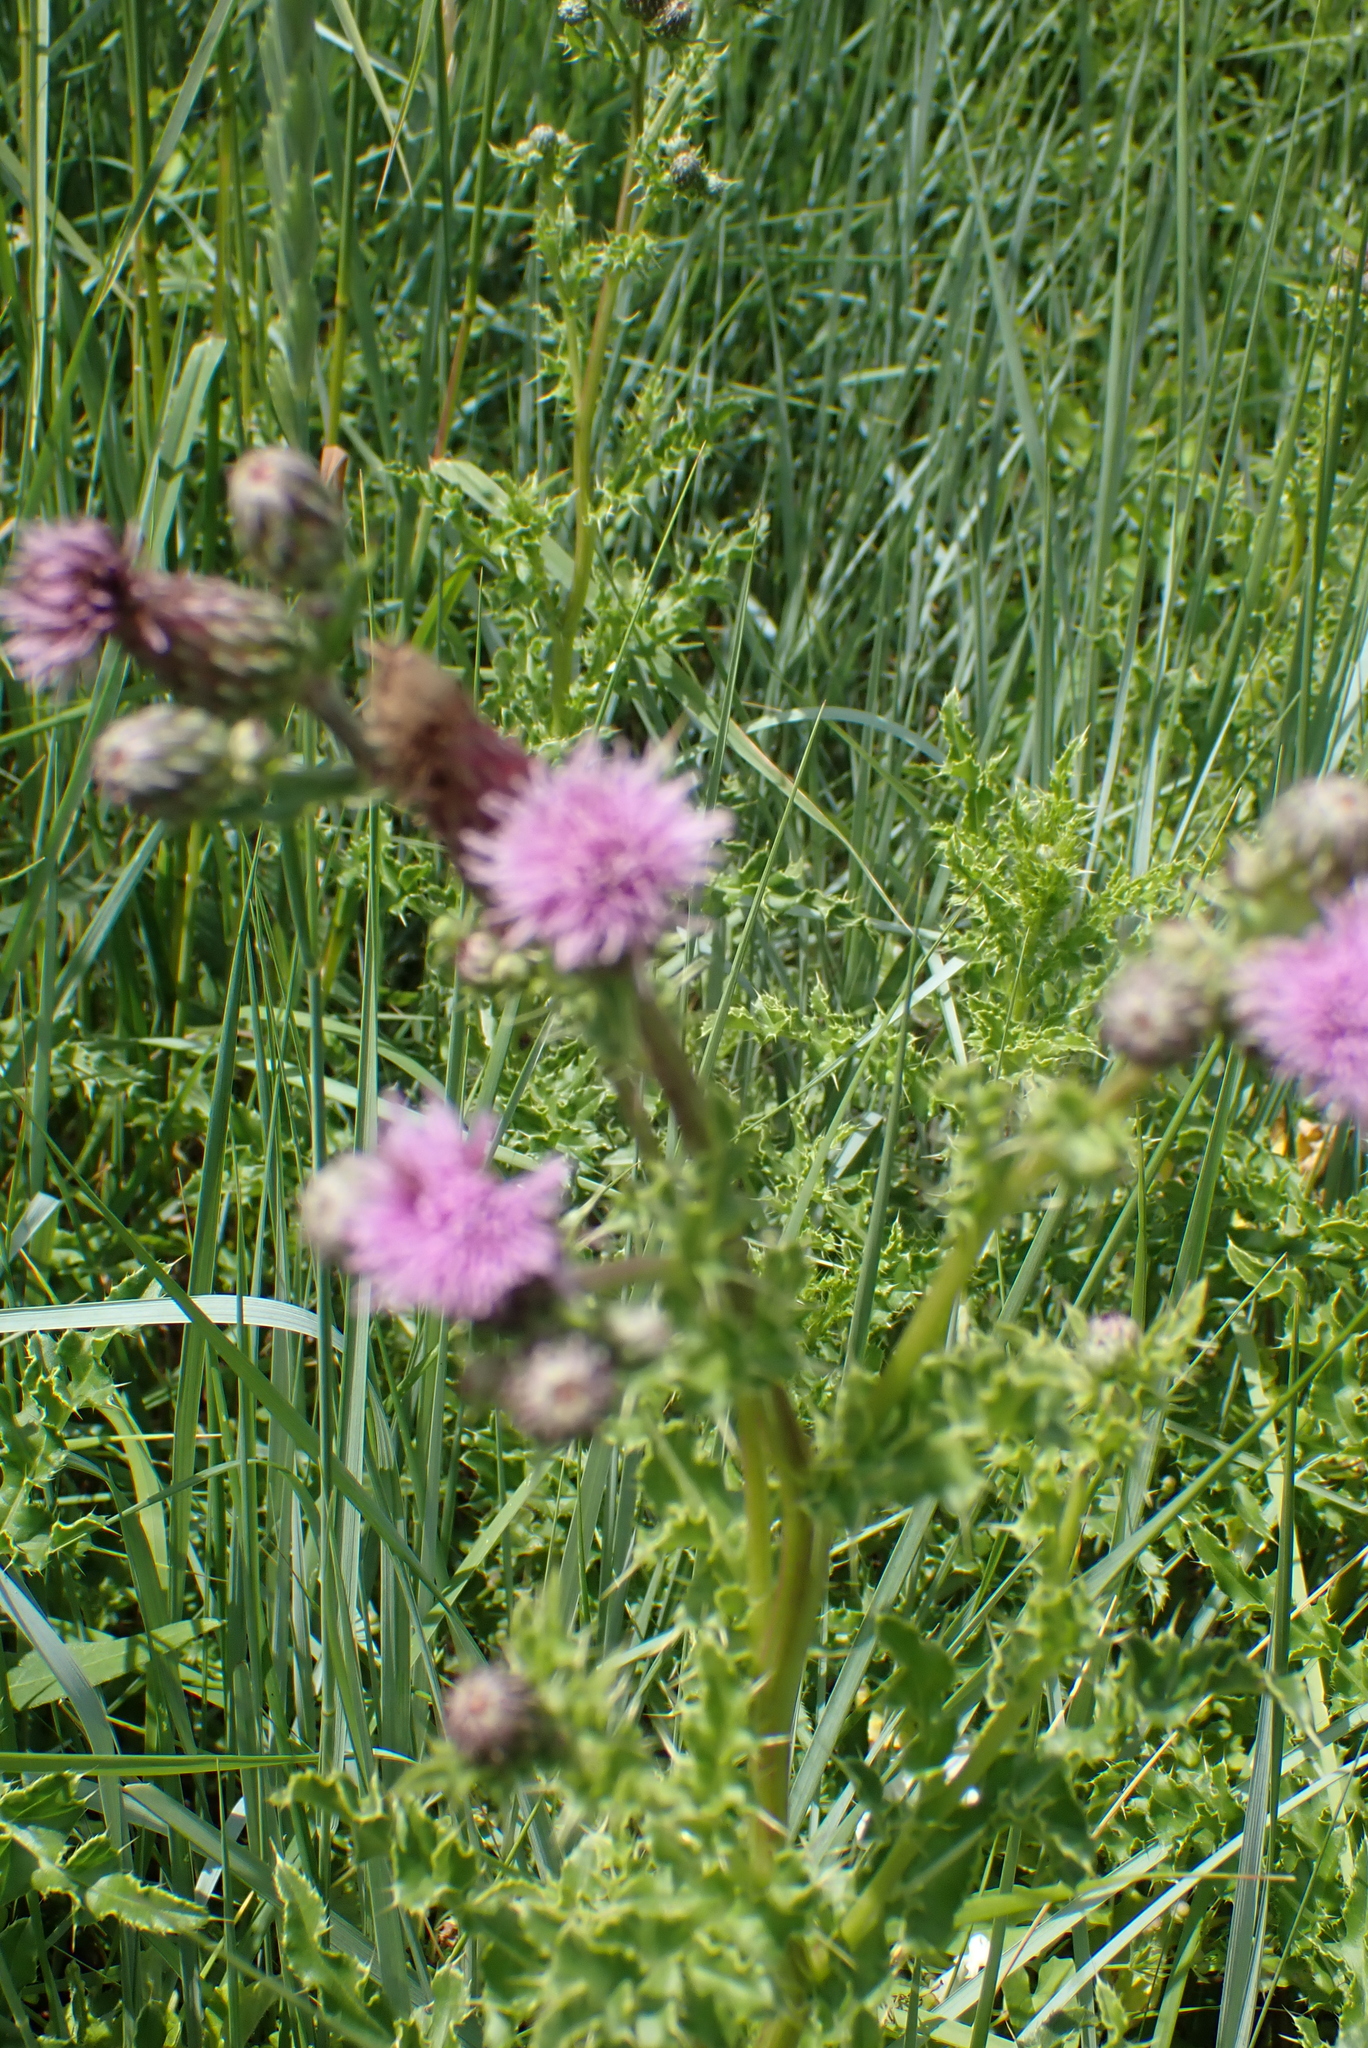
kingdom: Plantae
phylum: Tracheophyta
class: Magnoliopsida
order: Asterales
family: Asteraceae
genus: Cirsium
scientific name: Cirsium arvense
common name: Creeping thistle
